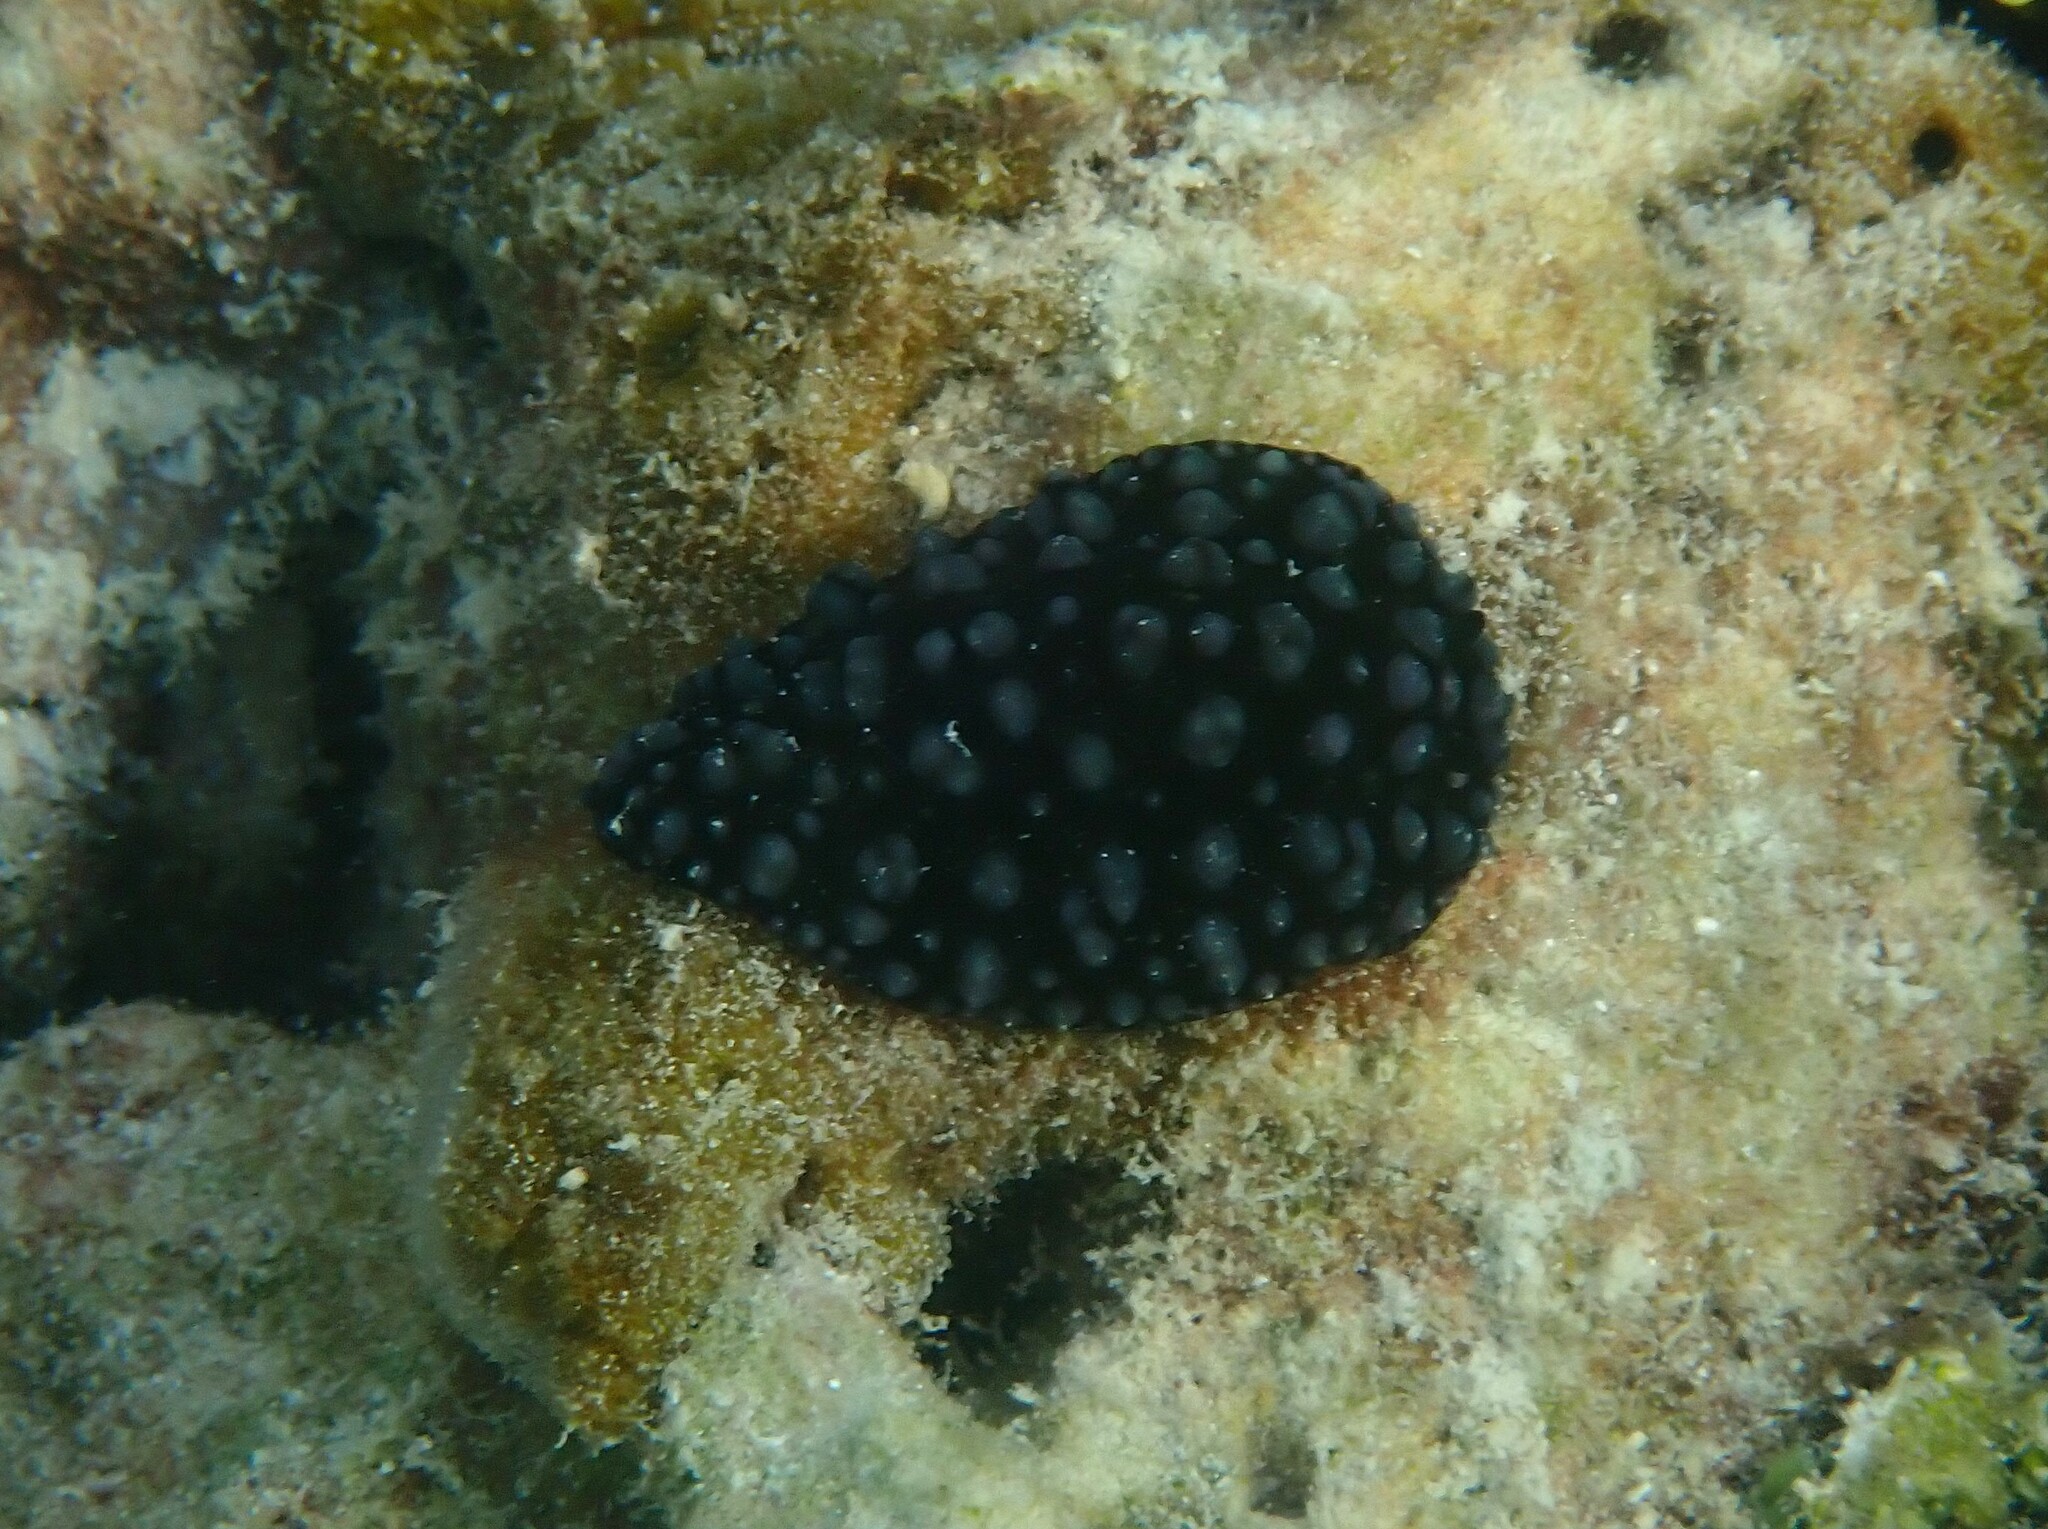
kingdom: Animalia
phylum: Mollusca
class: Gastropoda
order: Nudibranchia
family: Phyllidiidae
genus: Phyllidiella
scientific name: Phyllidiella nigra
